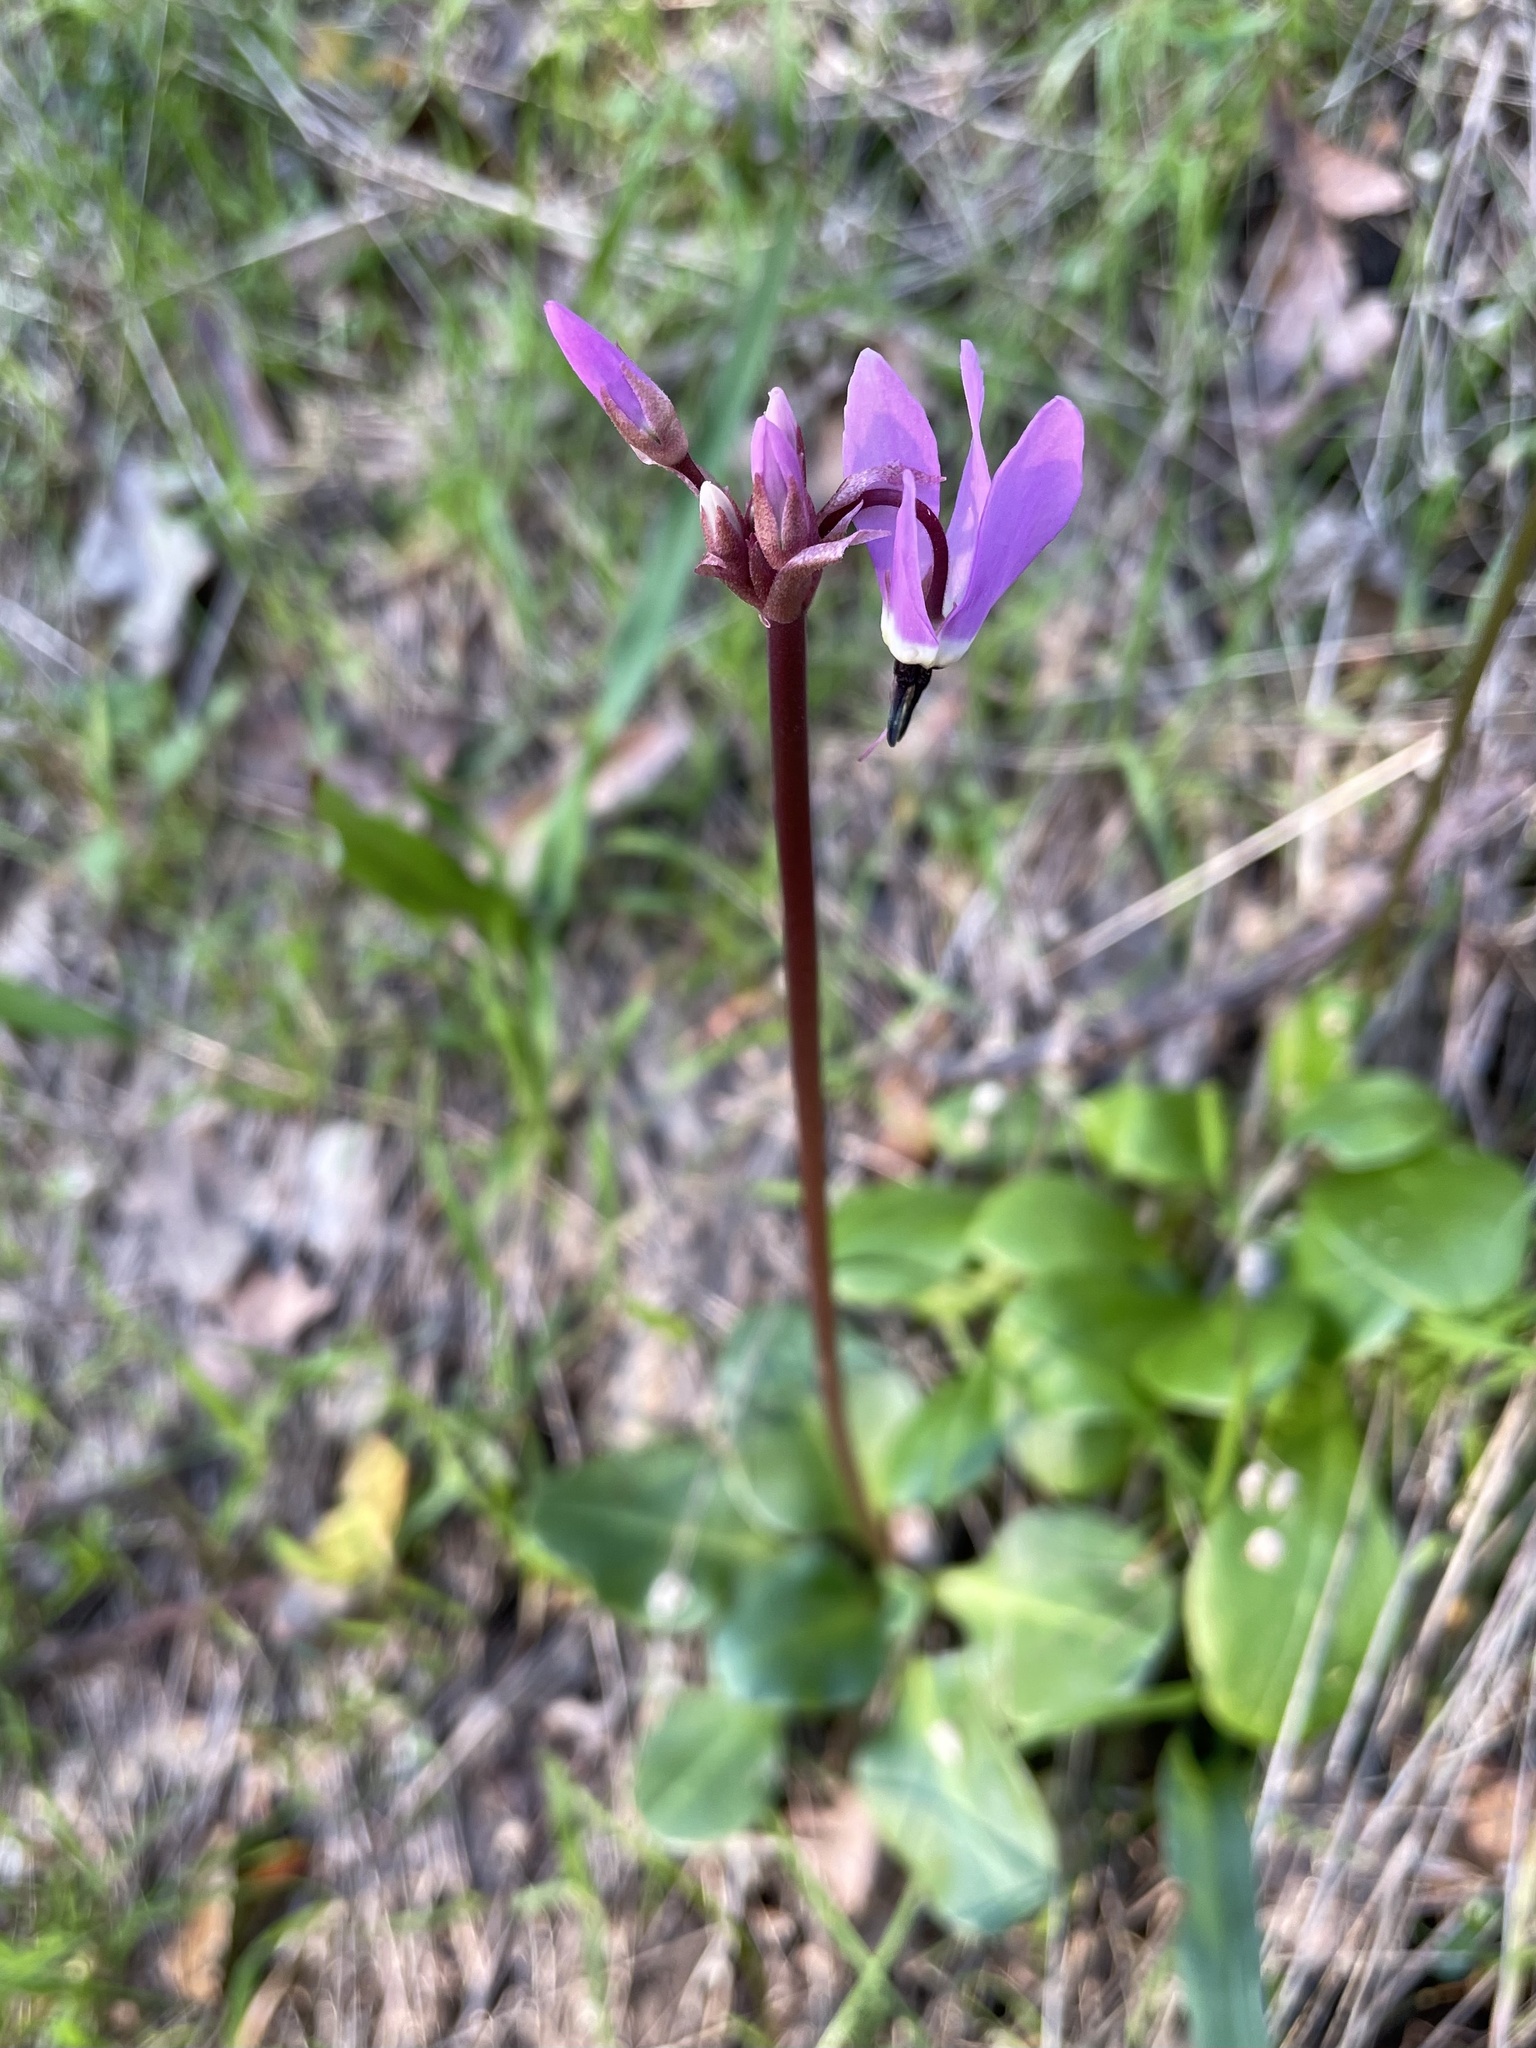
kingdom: Plantae
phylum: Tracheophyta
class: Magnoliopsida
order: Ericales
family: Primulaceae
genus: Dodecatheon
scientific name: Dodecatheon hendersonii
